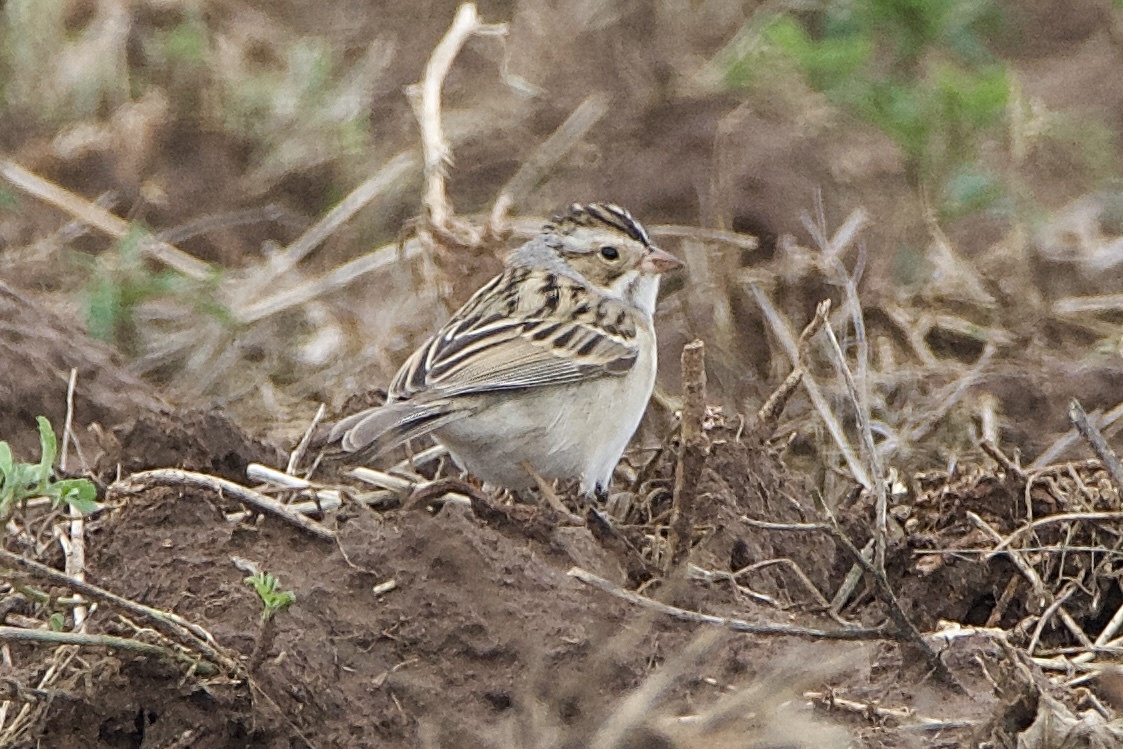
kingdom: Animalia
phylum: Chordata
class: Aves
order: Passeriformes
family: Passerellidae
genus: Spizella
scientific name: Spizella pallida
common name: Clay-colored sparrow
